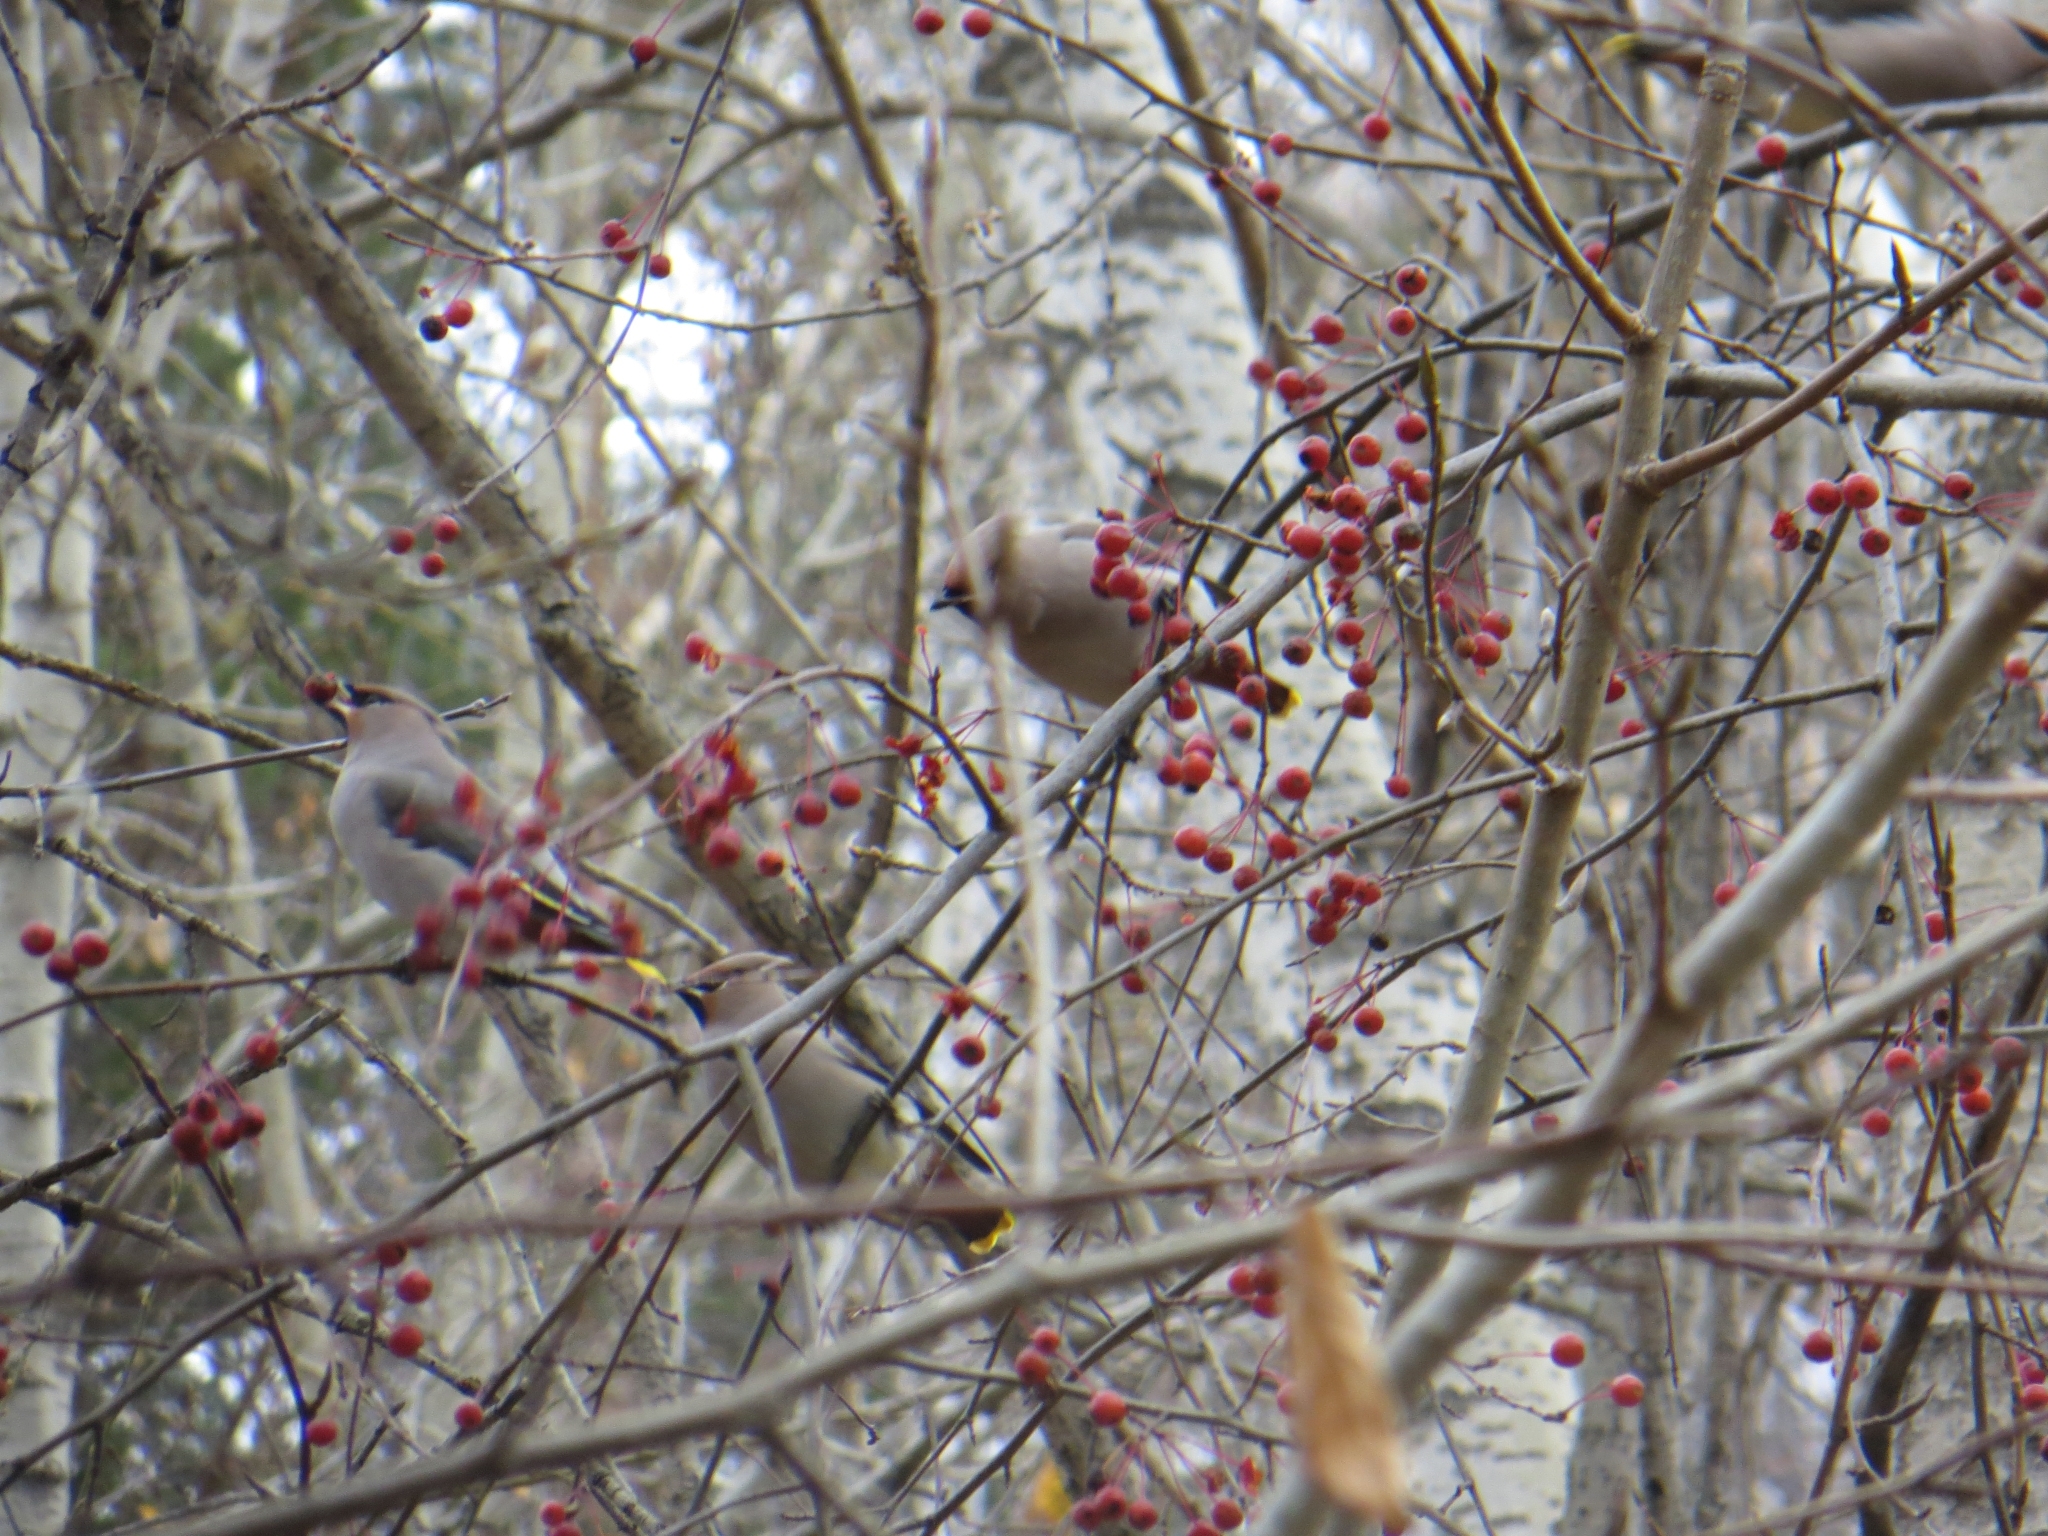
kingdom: Animalia
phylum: Chordata
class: Aves
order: Passeriformes
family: Bombycillidae
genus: Bombycilla
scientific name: Bombycilla garrulus
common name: Bohemian waxwing
